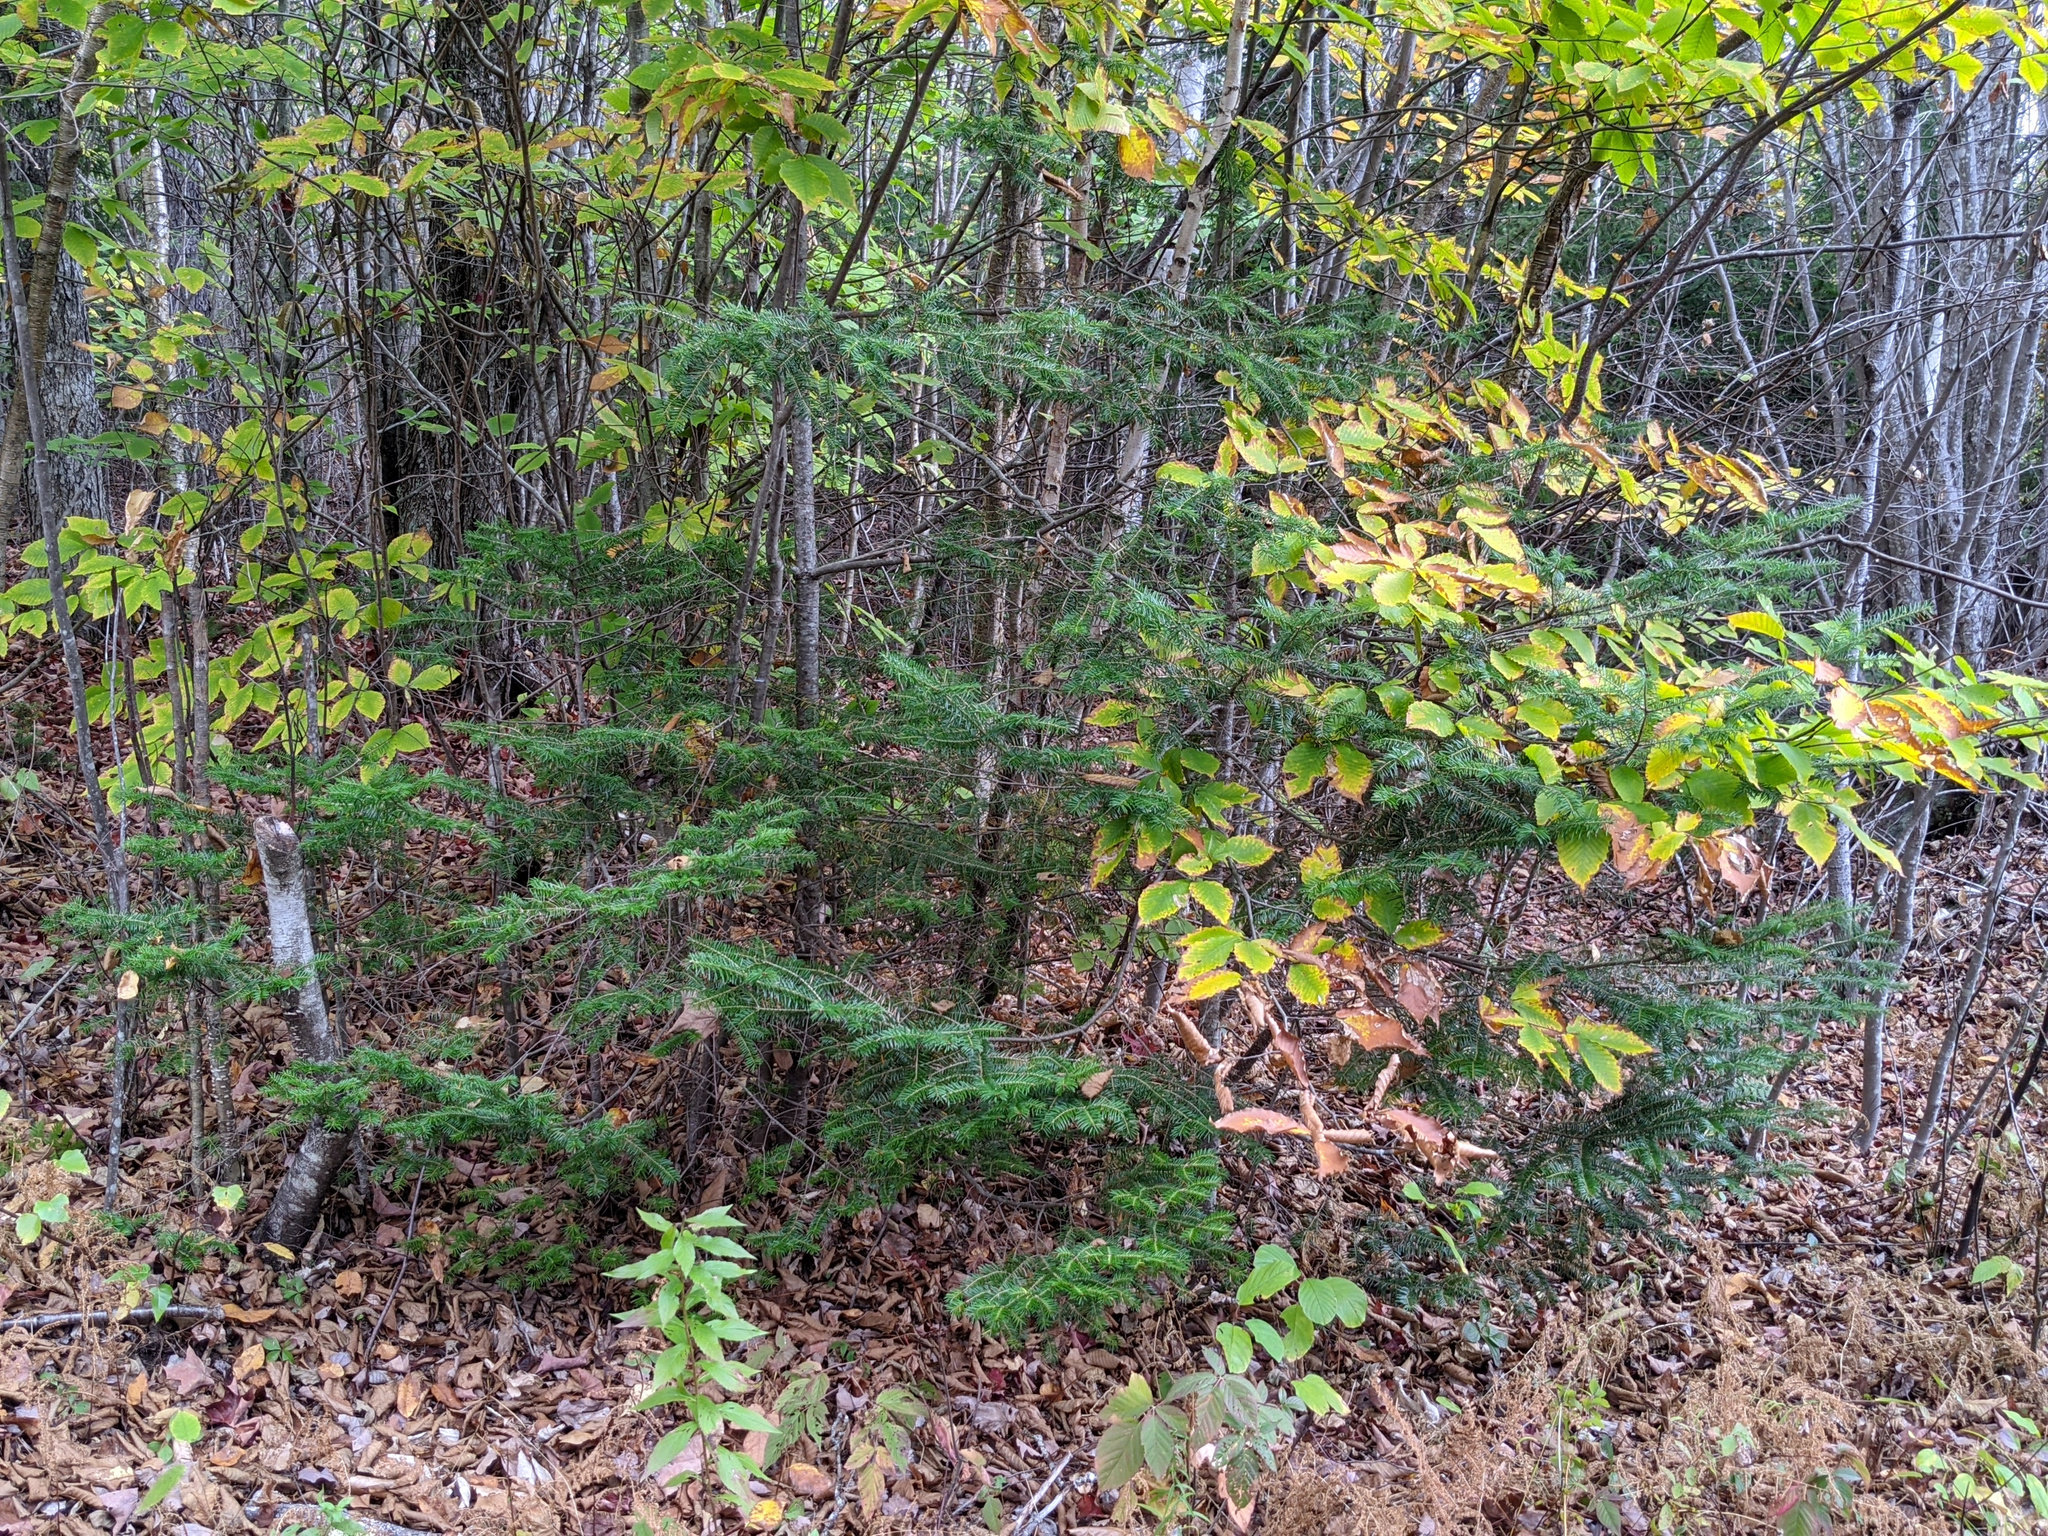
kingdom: Plantae
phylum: Tracheophyta
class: Pinopsida
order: Pinales
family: Pinaceae
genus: Abies
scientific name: Abies balsamea
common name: Balsam fir
